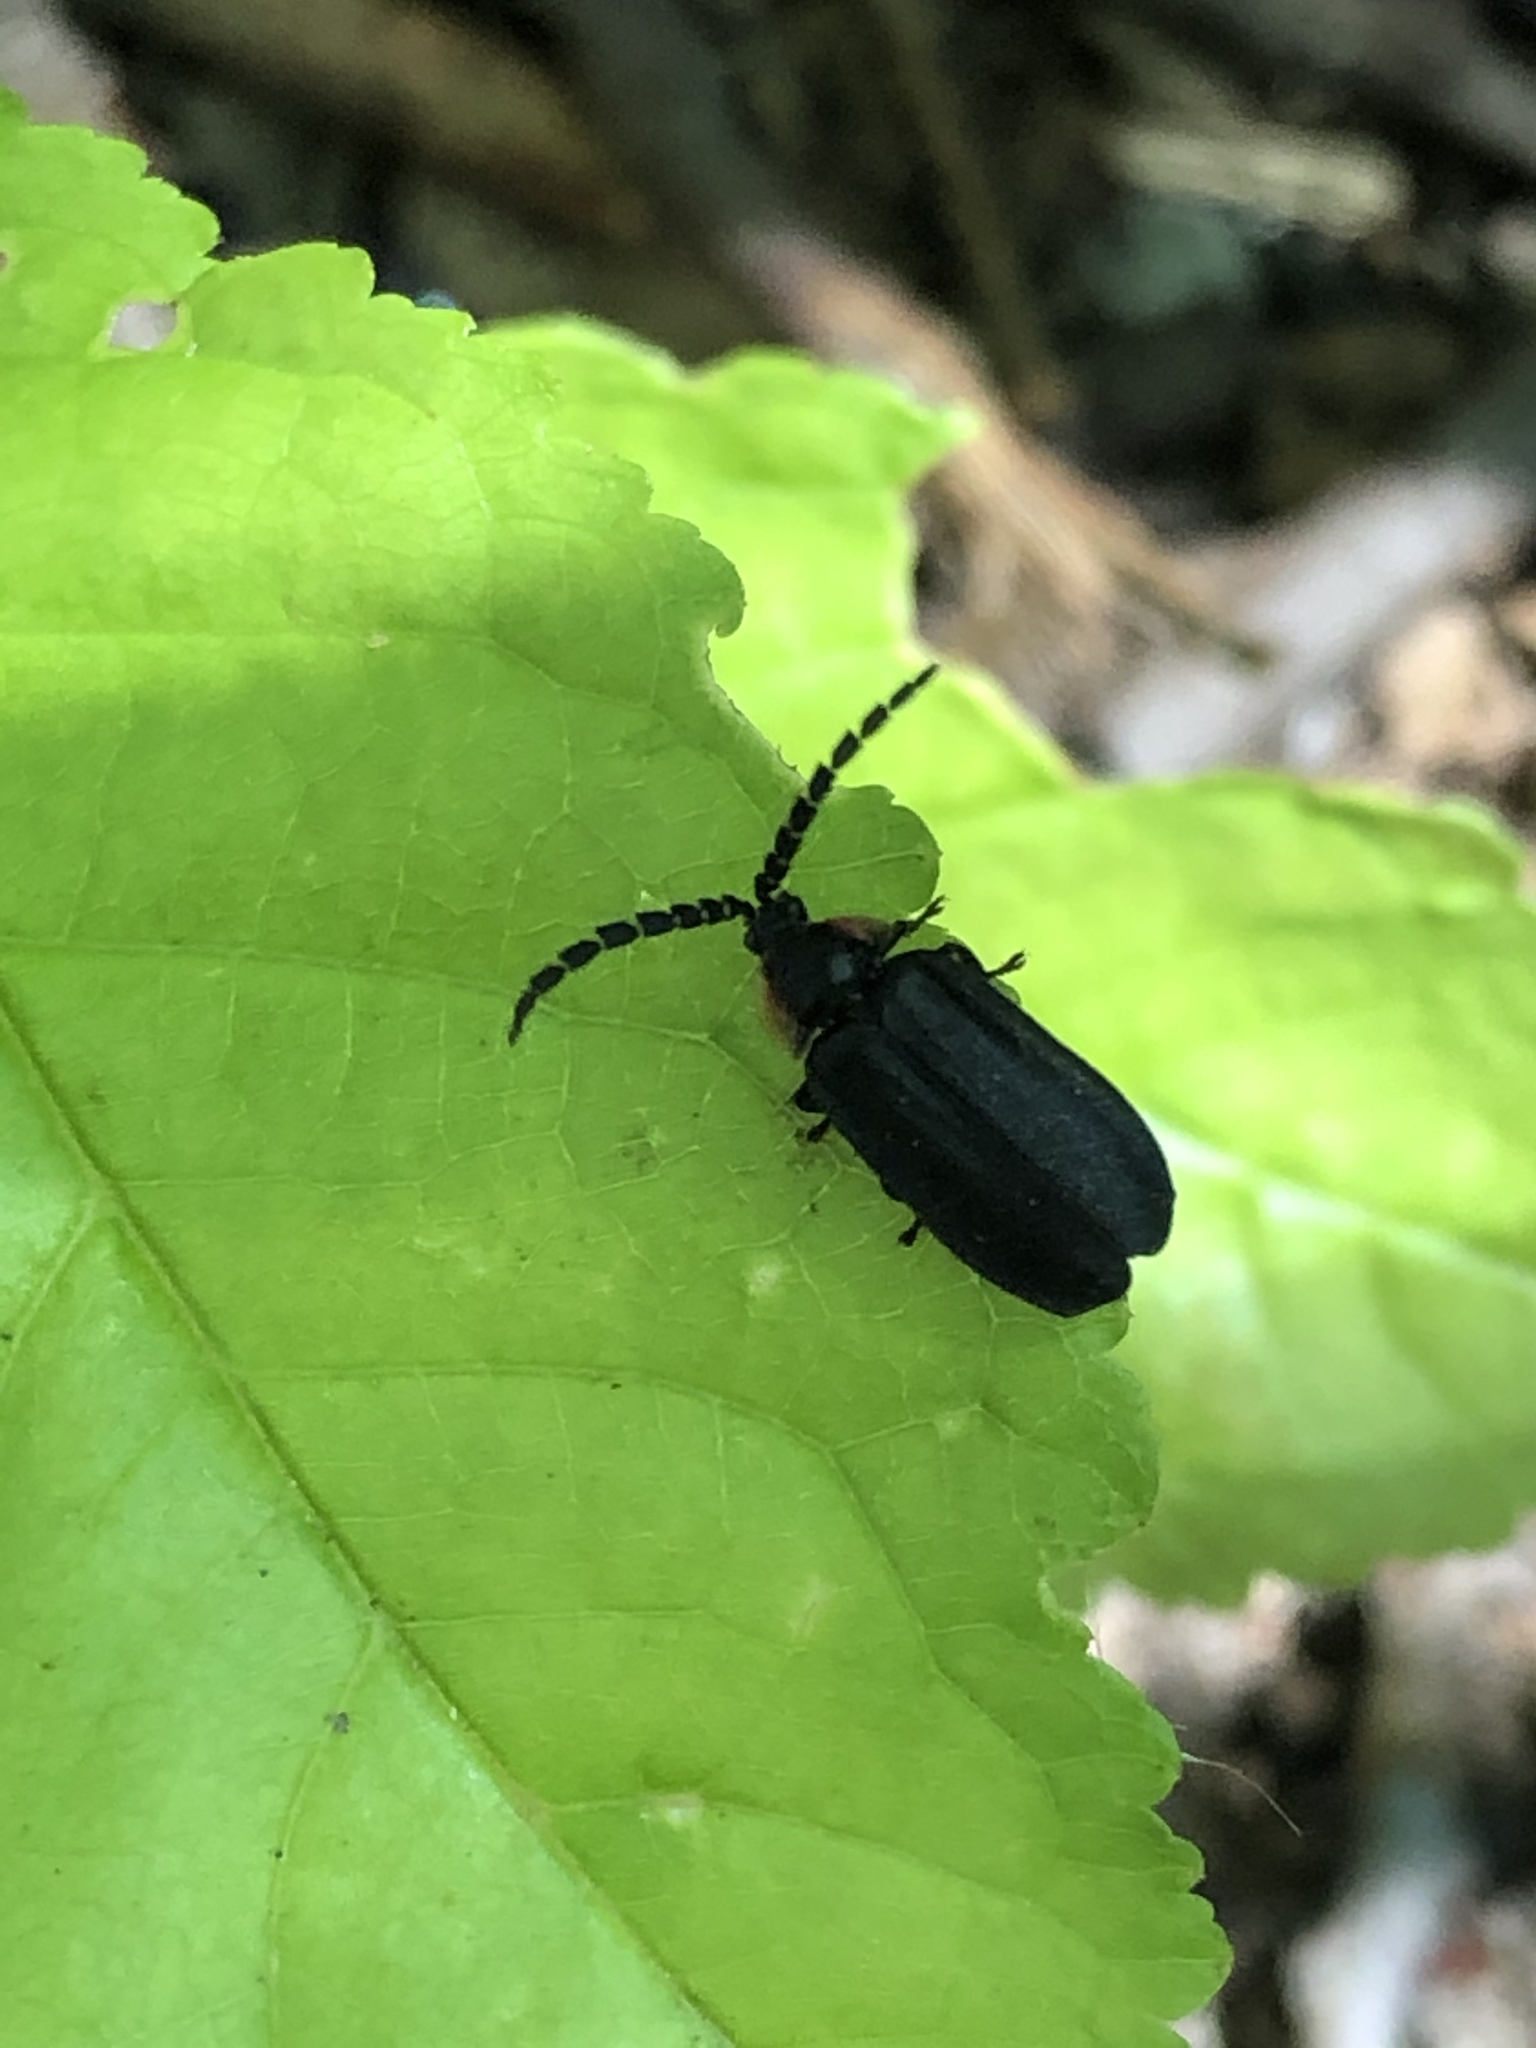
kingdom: Animalia
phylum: Arthropoda
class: Insecta
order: Coleoptera
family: Lampyridae
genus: Lucidota
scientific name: Lucidota atra
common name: Black firefly
